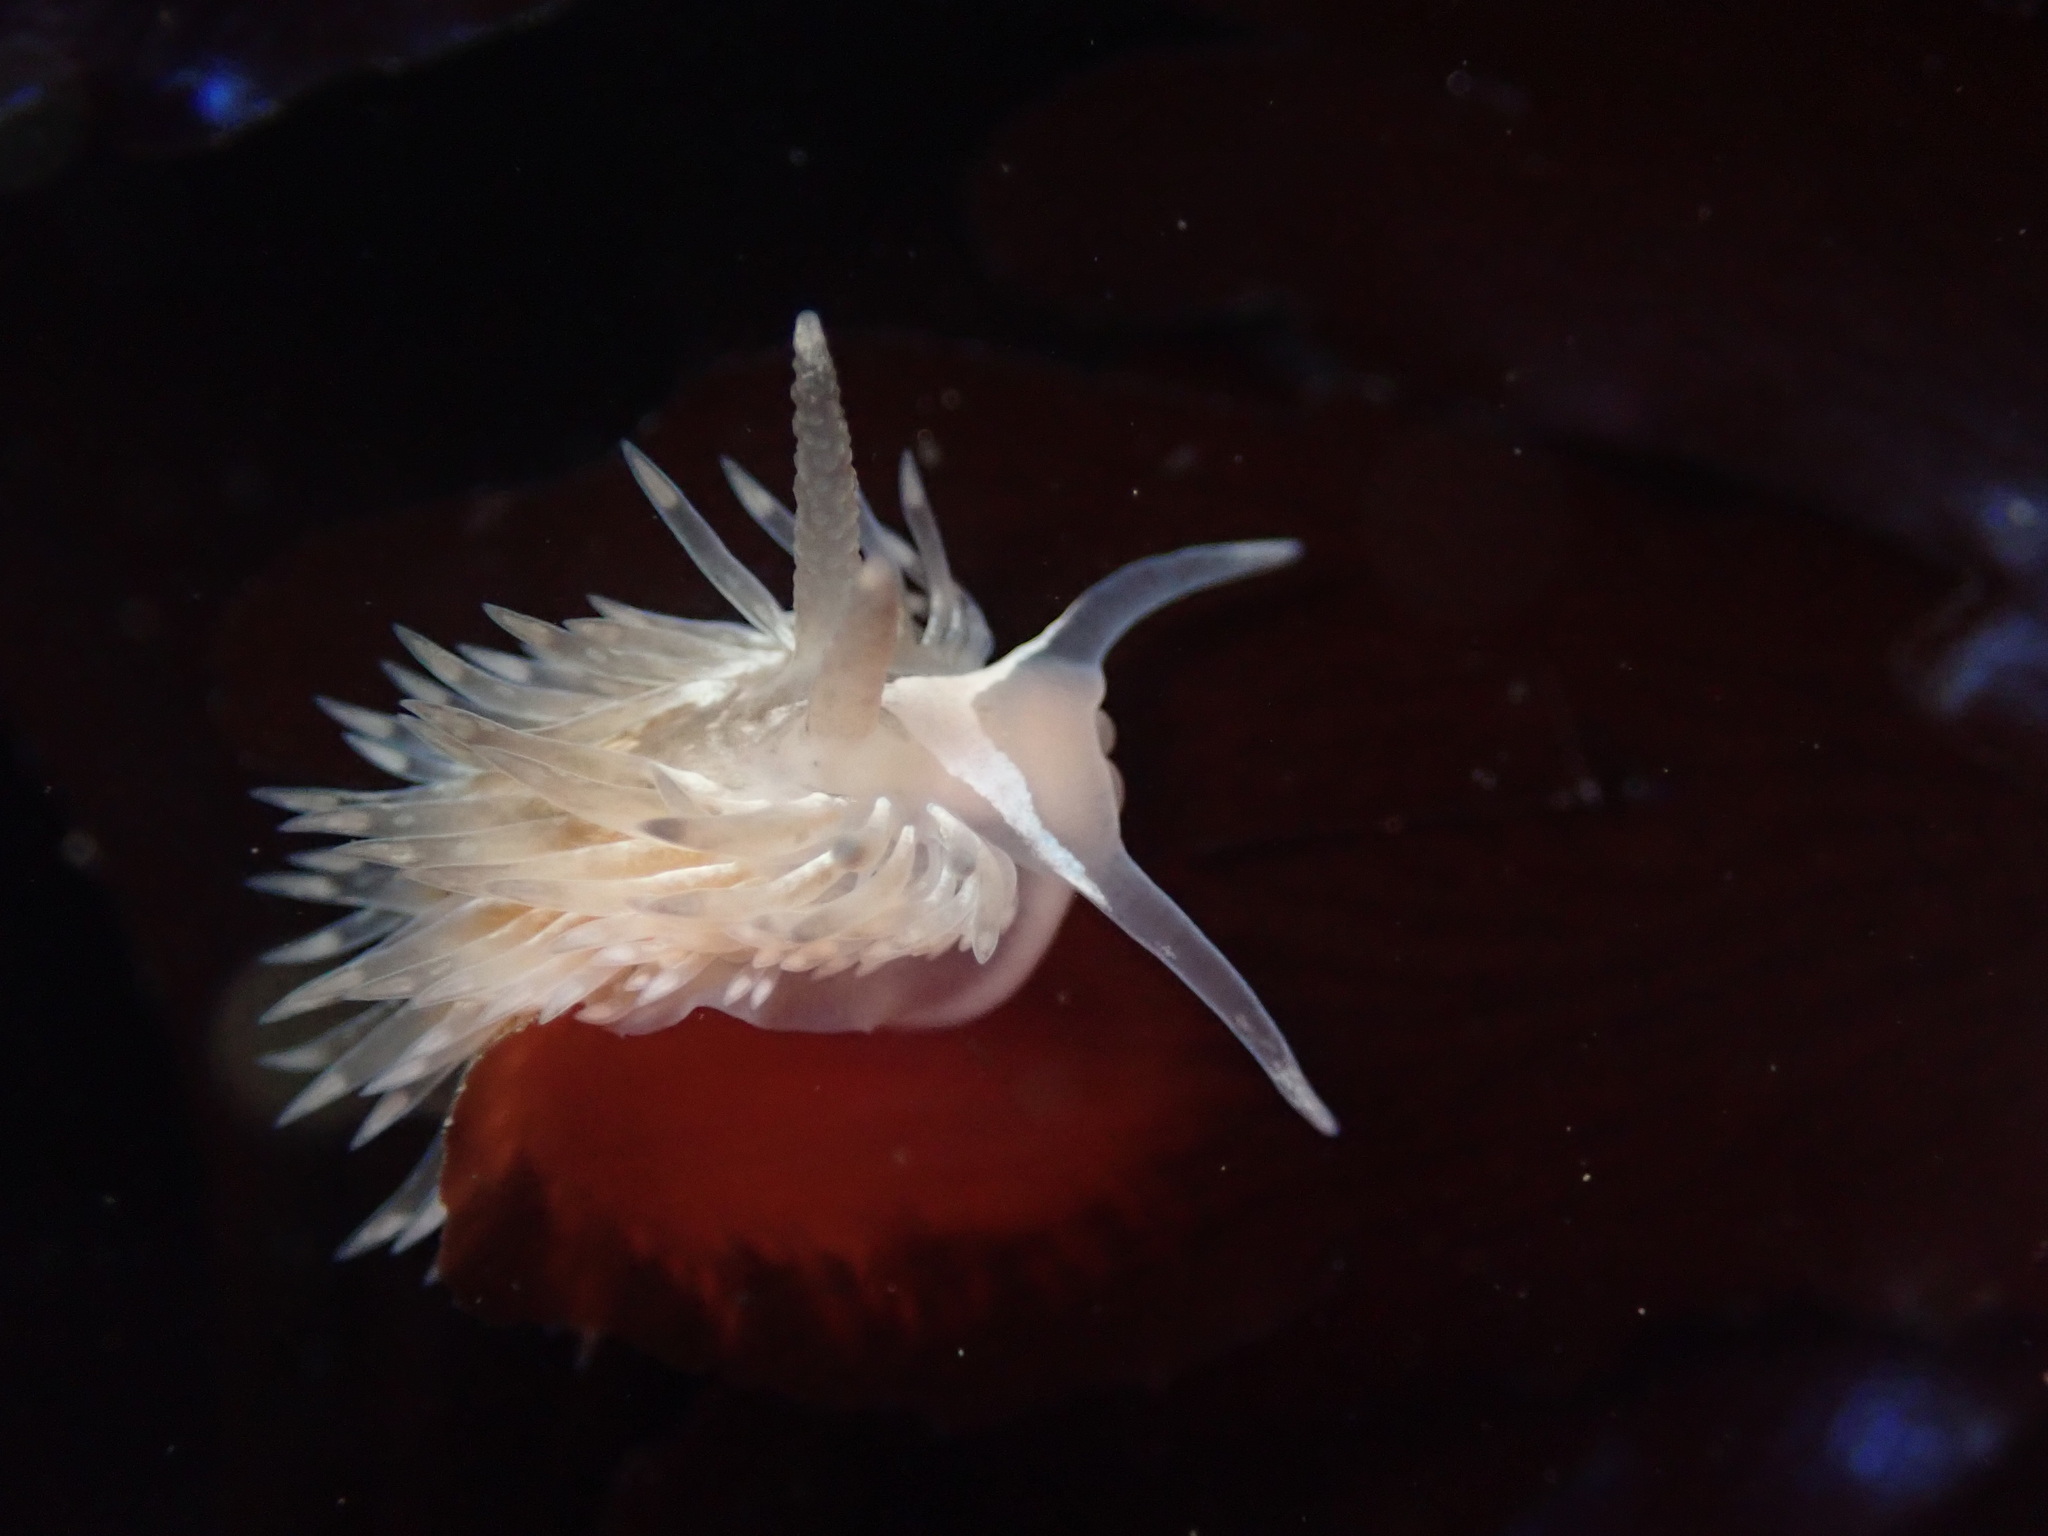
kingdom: Animalia
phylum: Mollusca
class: Gastropoda
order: Nudibranchia
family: Aeolidiidae
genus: Aeolidia
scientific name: Aeolidia loui
